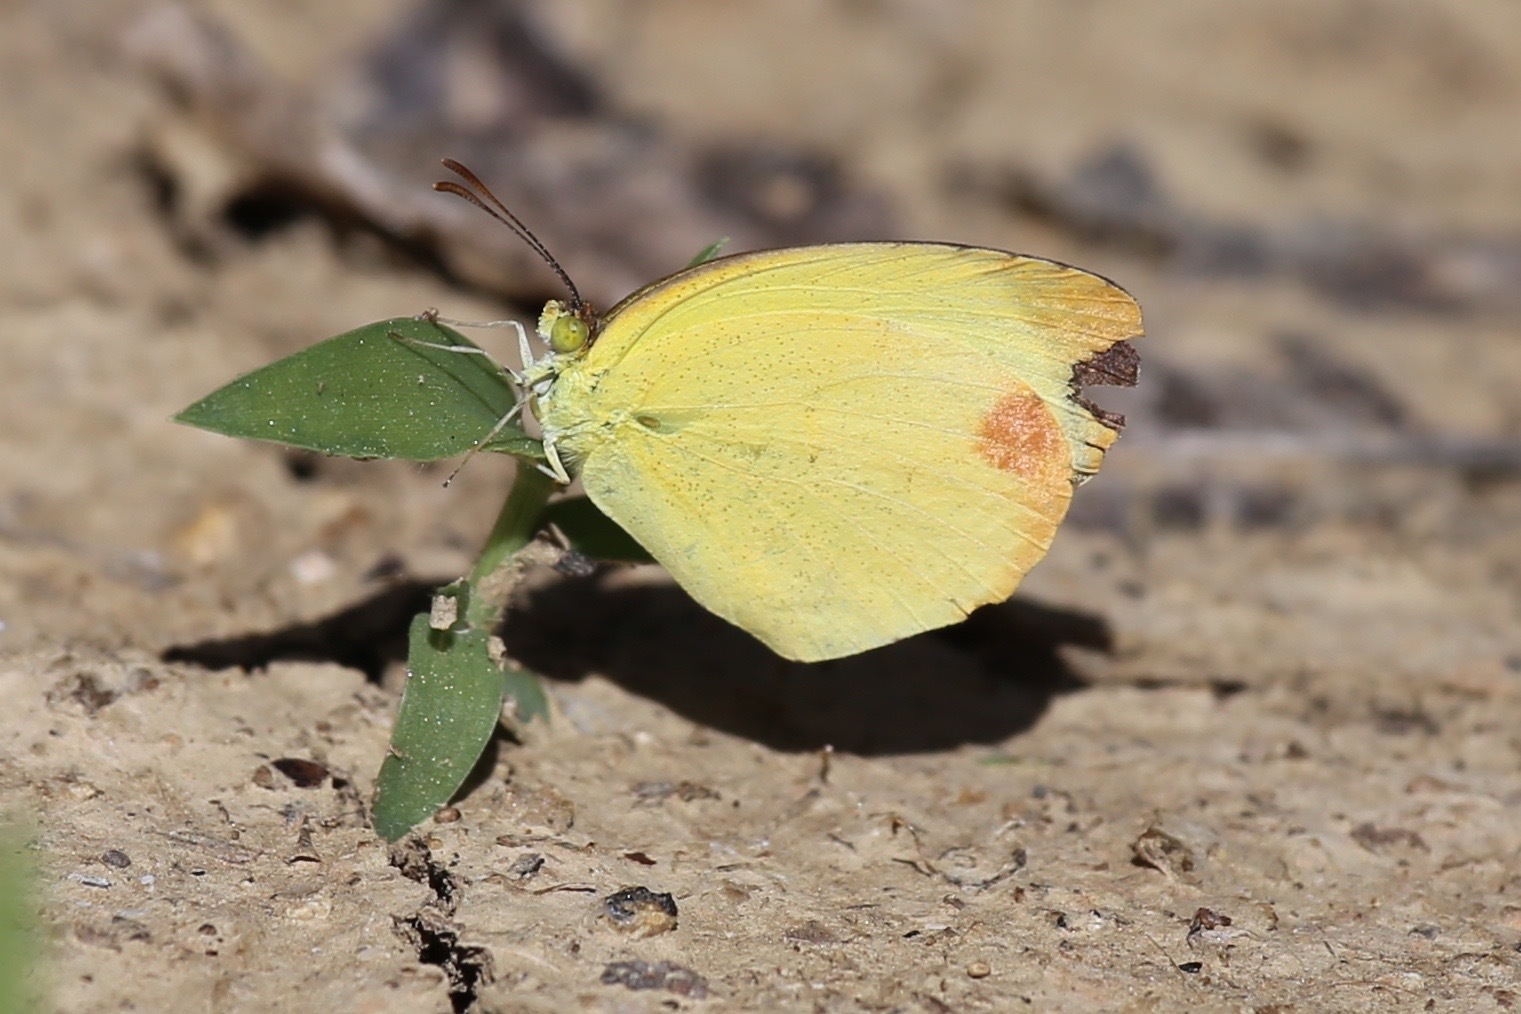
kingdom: Animalia
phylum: Arthropoda
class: Insecta
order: Lepidoptera
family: Pieridae
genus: Pyrisitia
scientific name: Pyrisitia nise
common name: Mimosa yellow
